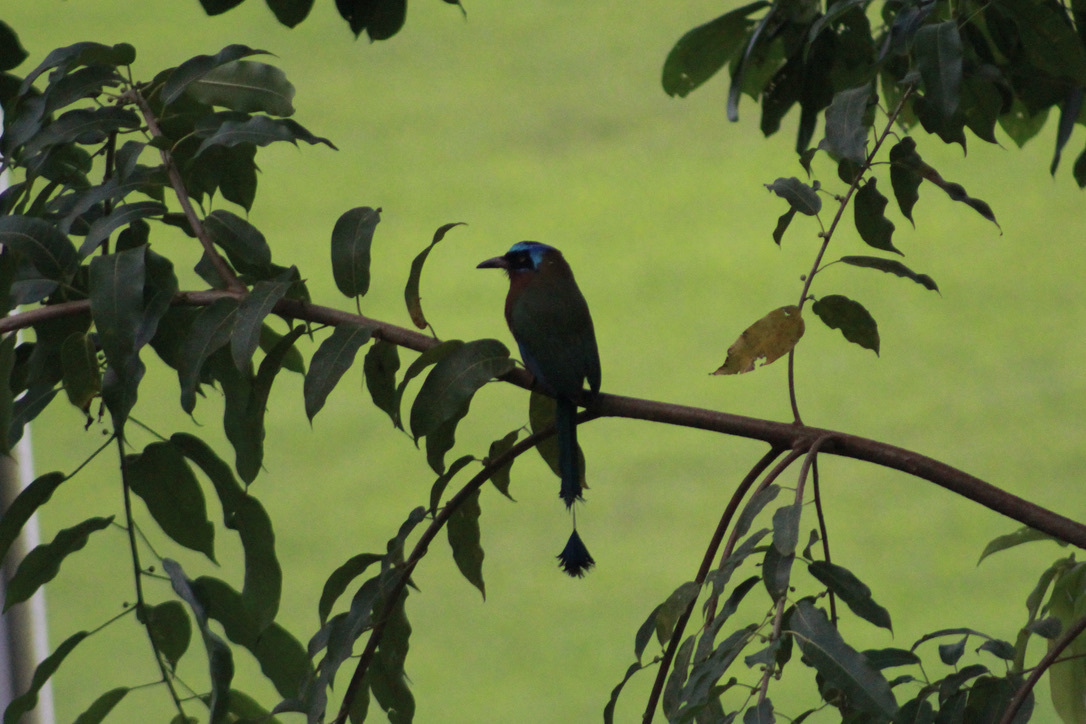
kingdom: Animalia
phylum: Chordata
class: Aves
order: Coraciiformes
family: Momotidae
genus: Momotus
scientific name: Momotus bahamensis
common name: Trinidad motmot
